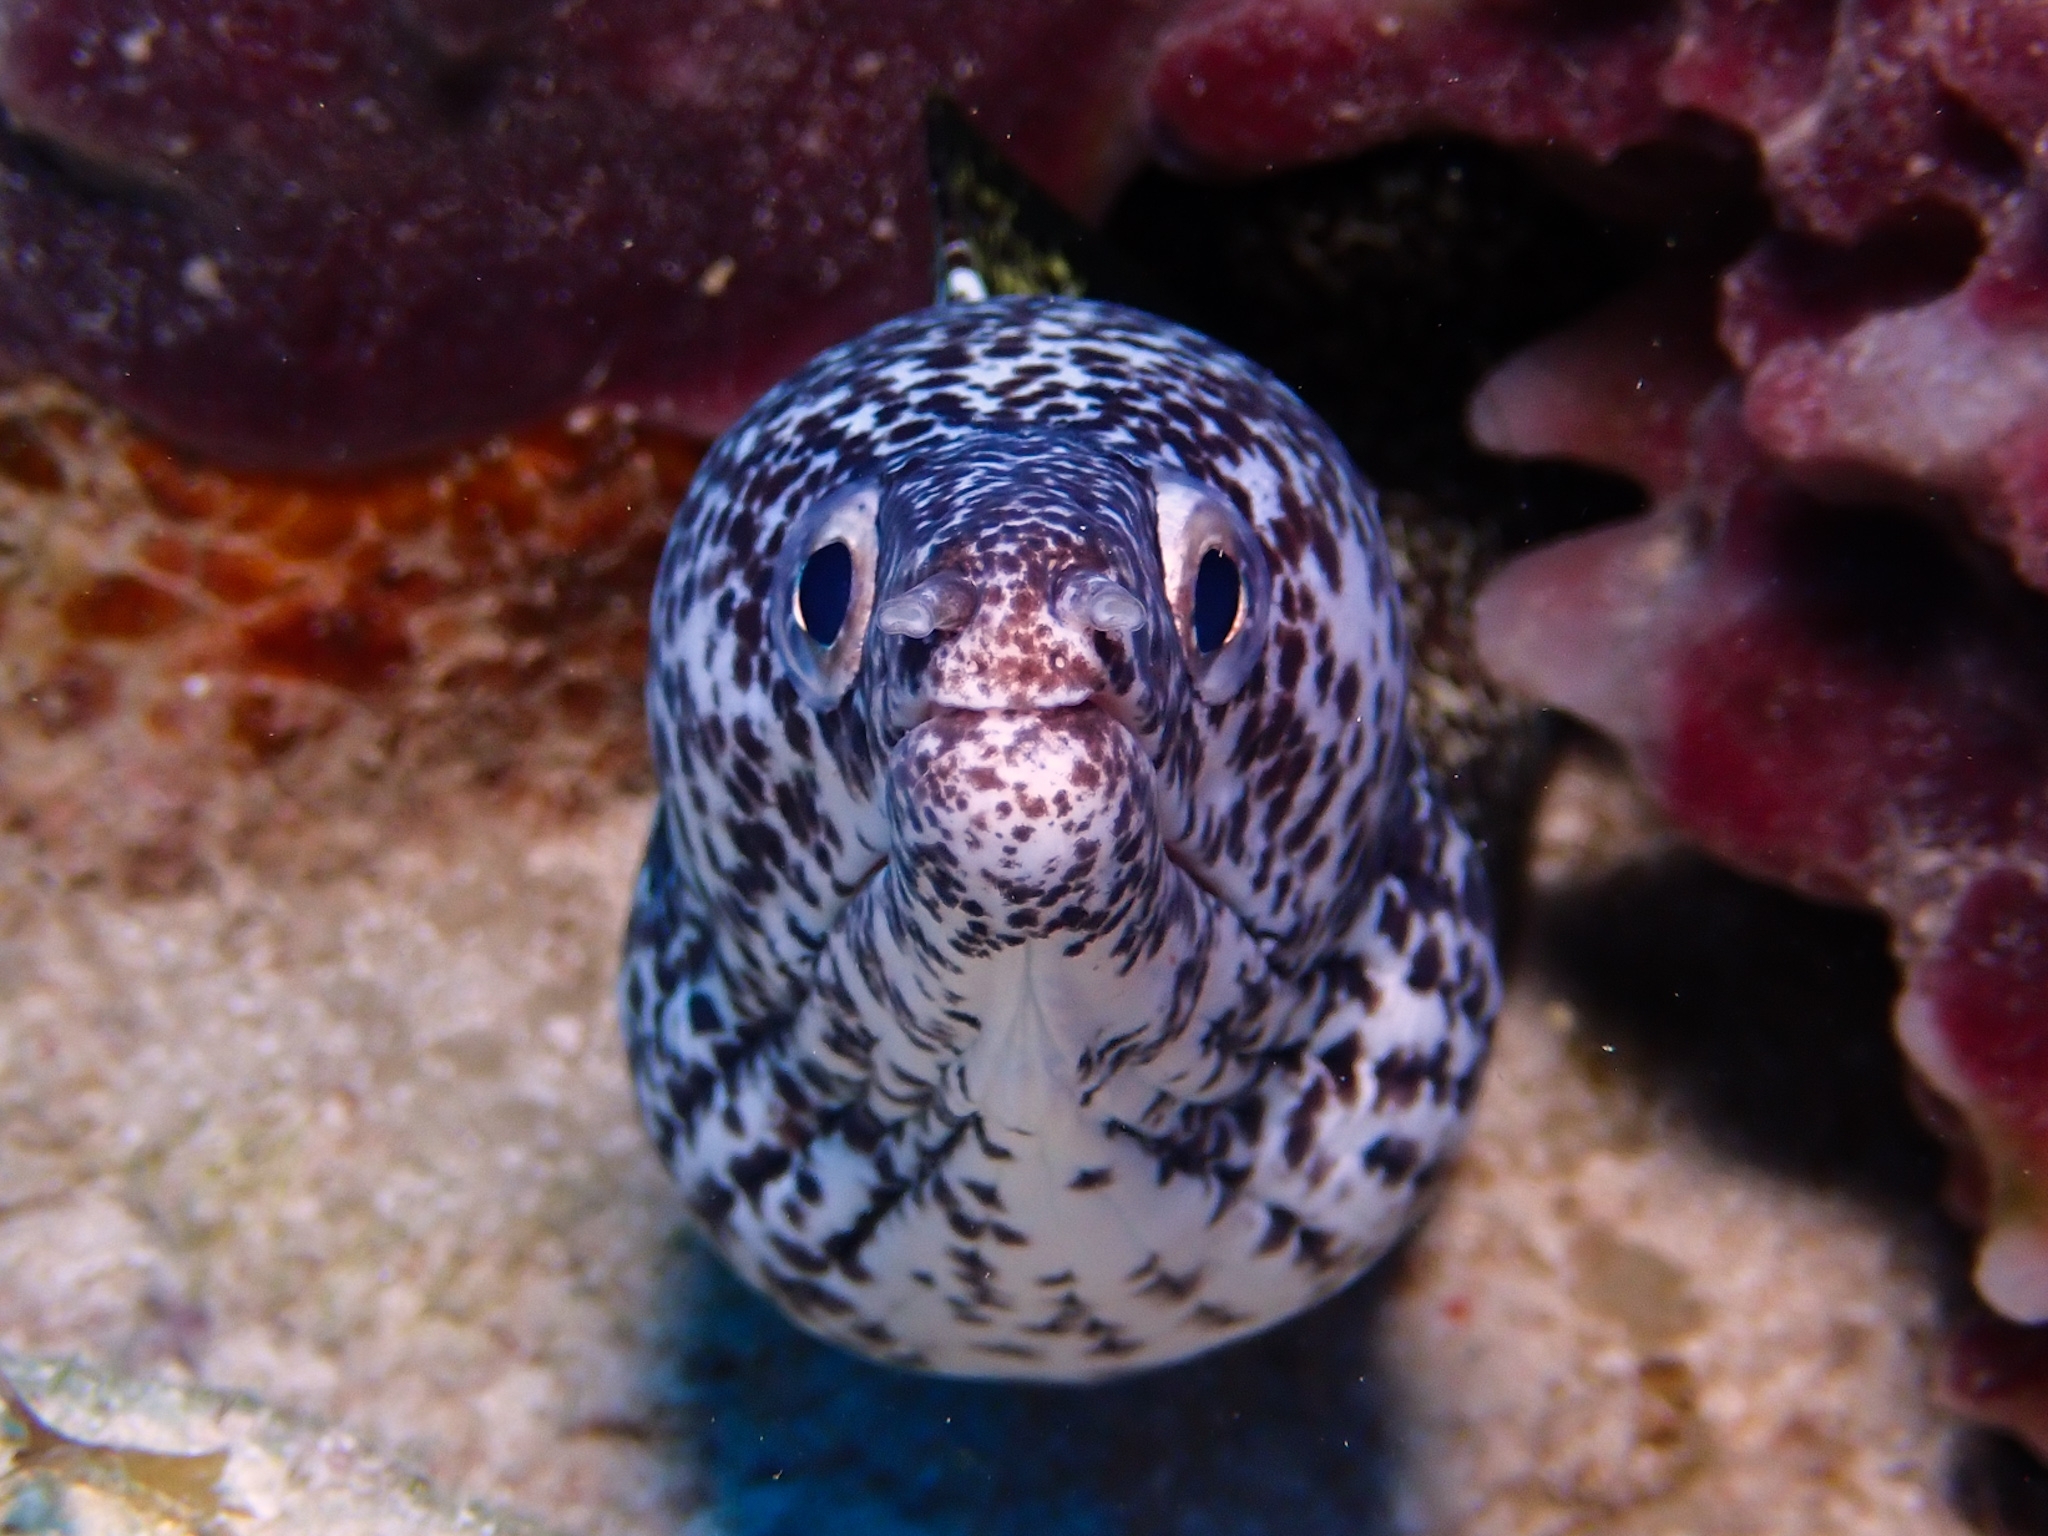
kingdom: Animalia
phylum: Chordata
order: Anguilliformes
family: Muraenidae
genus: Gymnothorax
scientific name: Gymnothorax moringa
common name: Spotted moray
